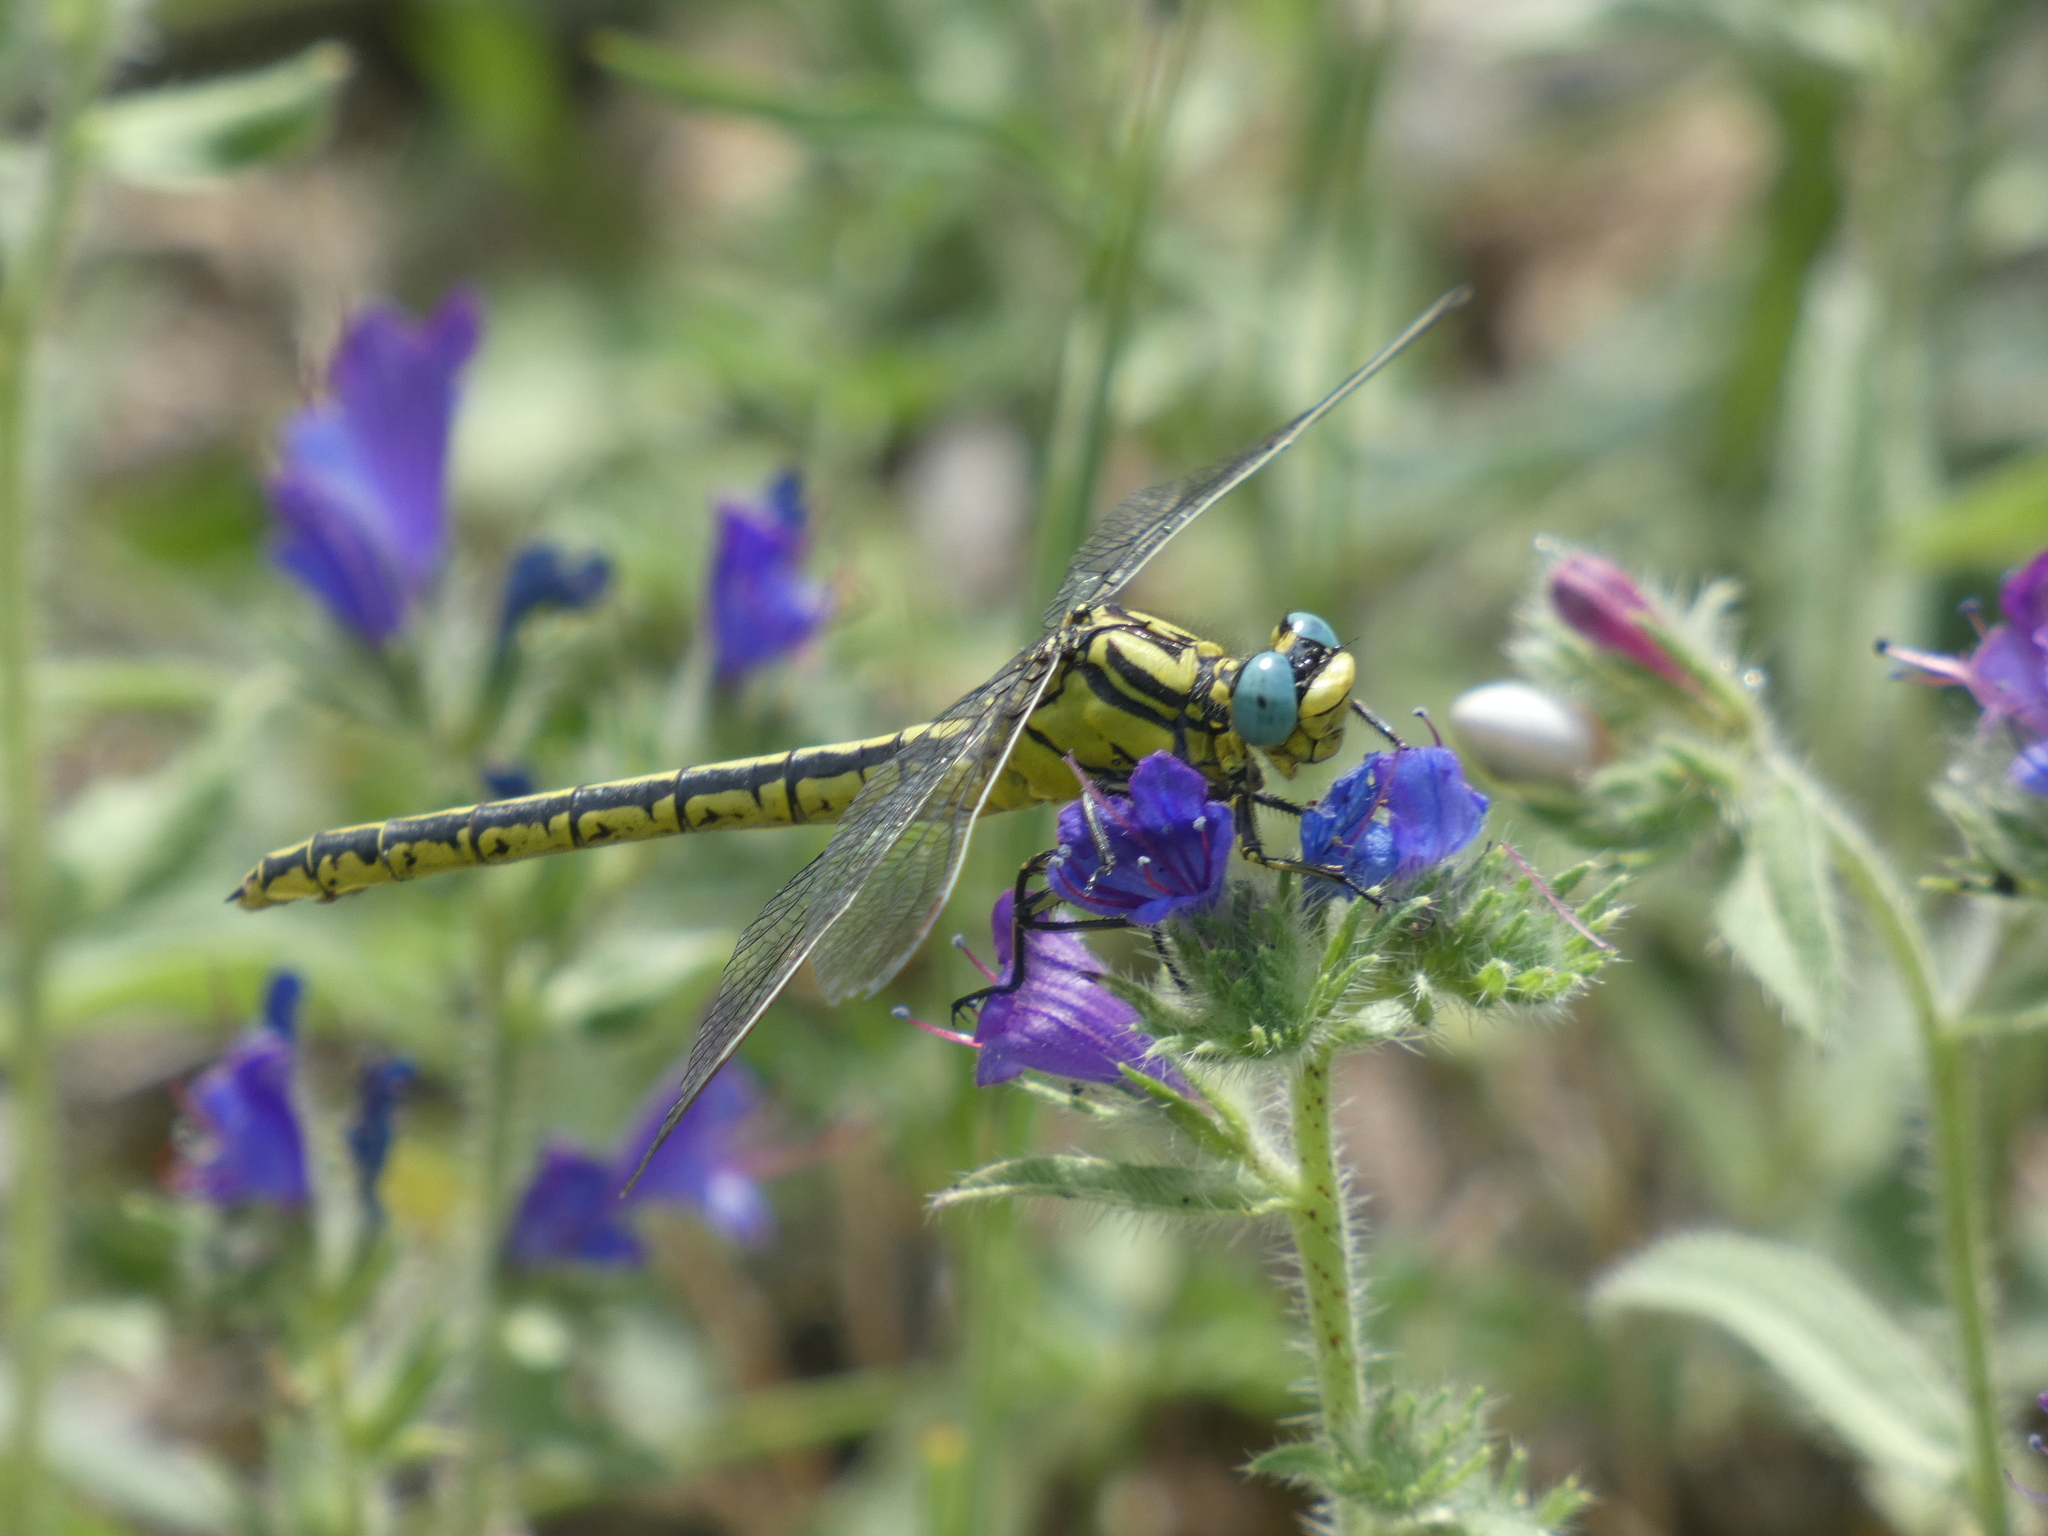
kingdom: Animalia
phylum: Arthropoda
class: Insecta
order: Odonata
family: Gomphidae
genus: Gomphus
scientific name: Gomphus simillimus
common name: Yellow clubtail
